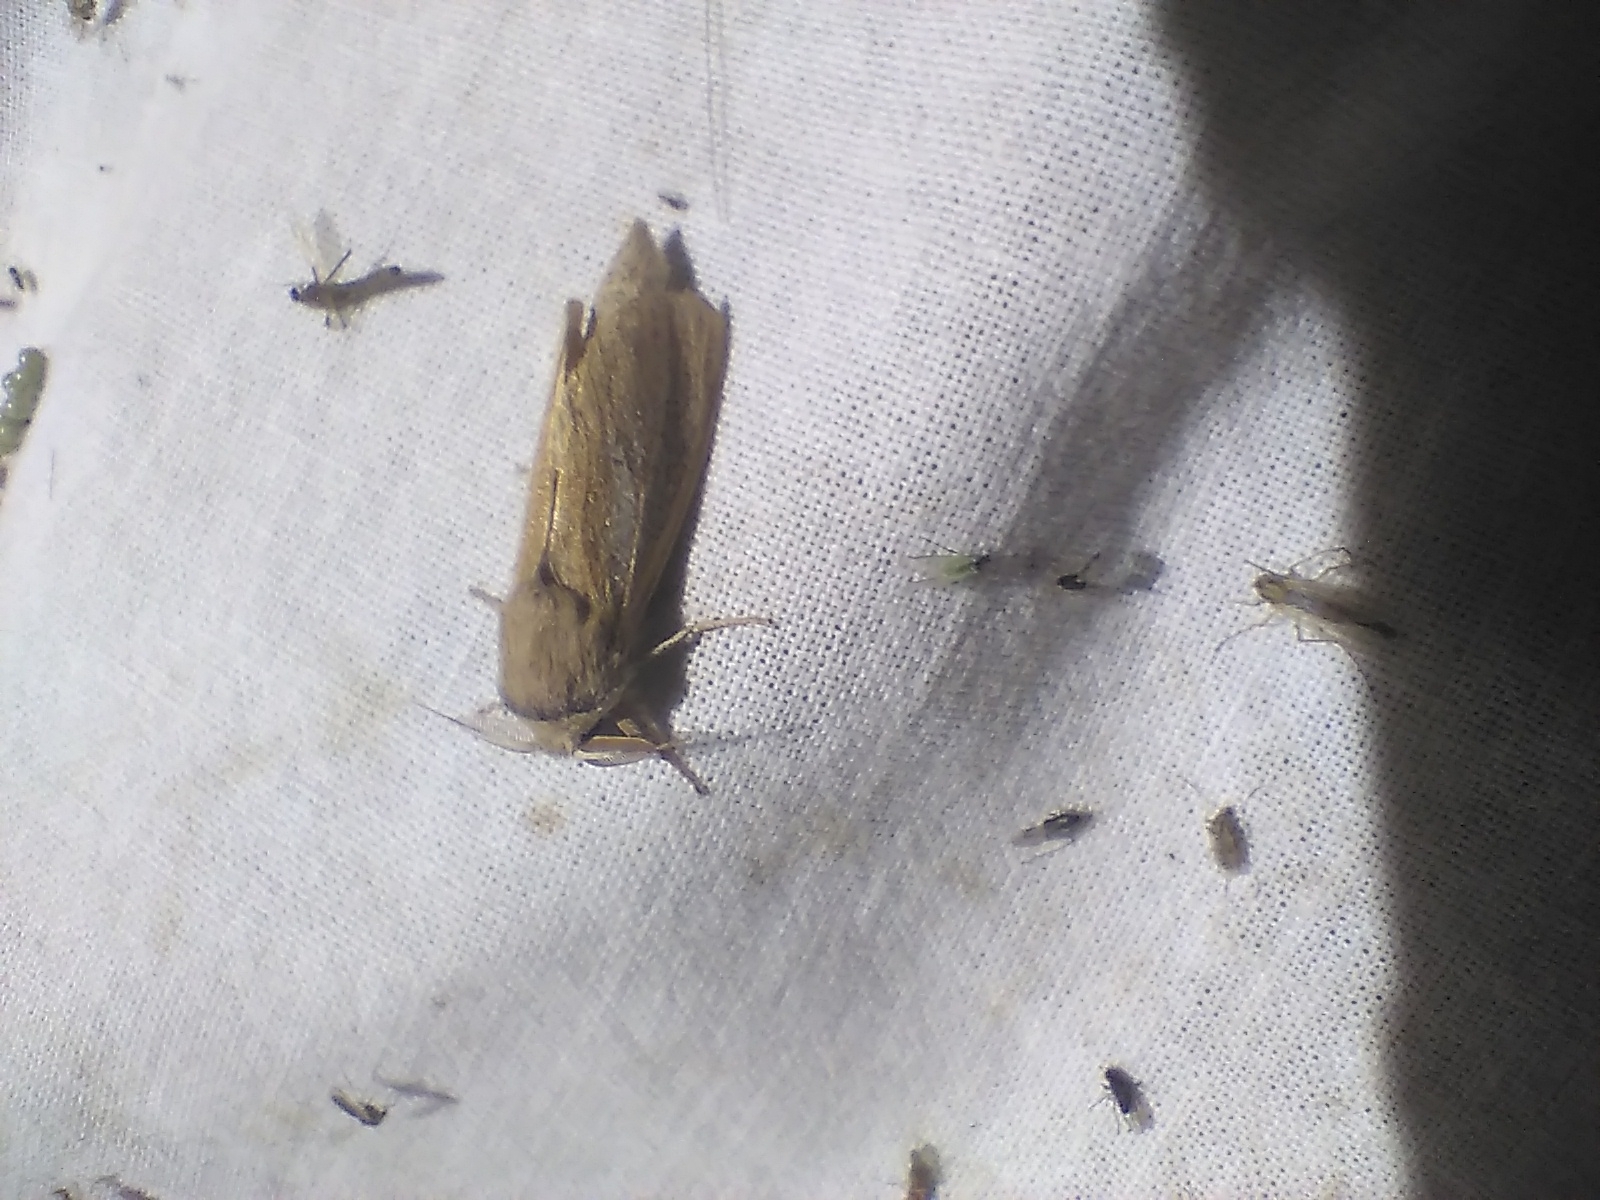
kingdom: Animalia
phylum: Arthropoda
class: Insecta
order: Lepidoptera
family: Cossidae
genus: Phragmataecia
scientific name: Phragmataecia castaneae
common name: Reed leopard
